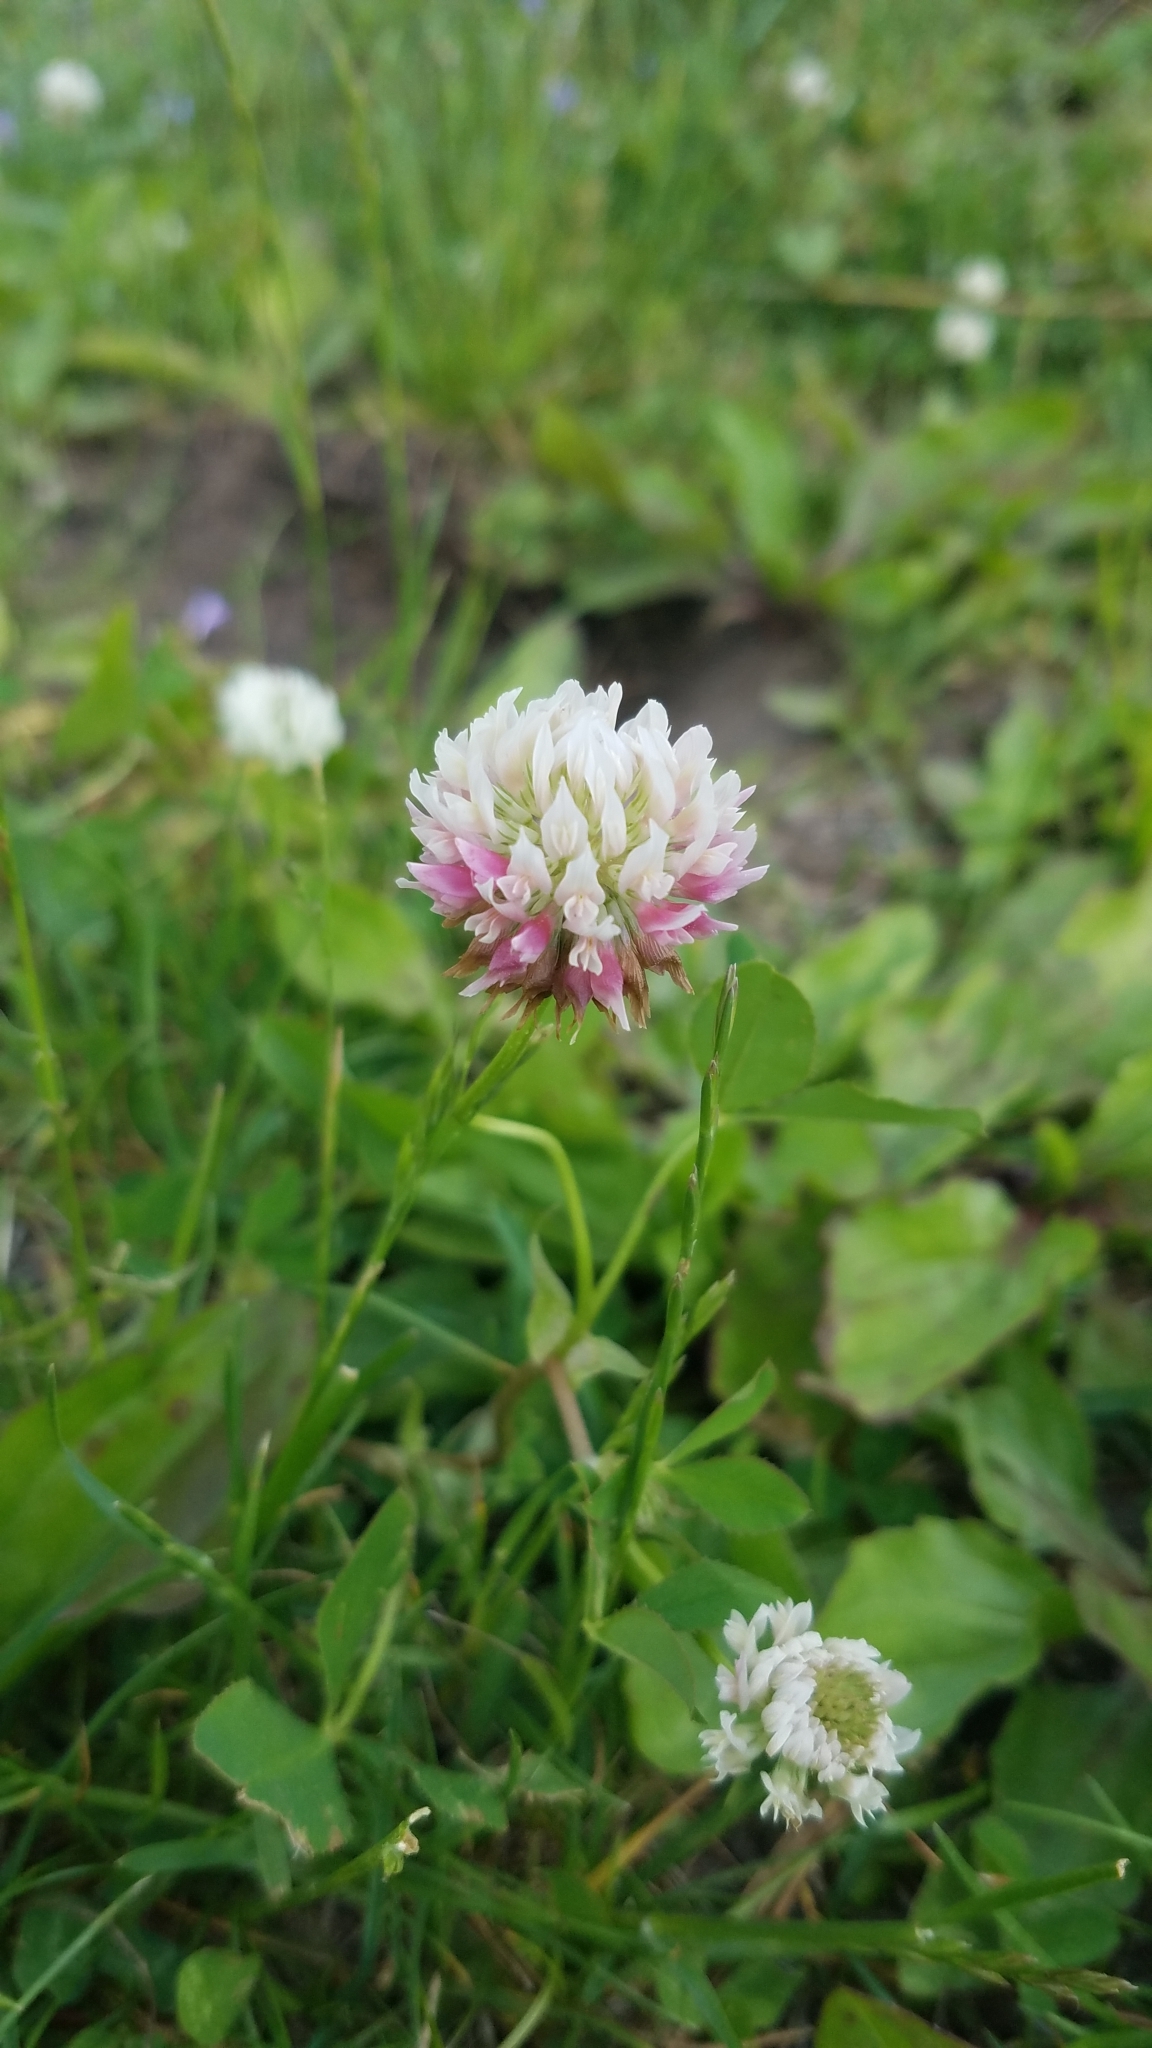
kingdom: Plantae
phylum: Tracheophyta
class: Magnoliopsida
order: Fabales
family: Fabaceae
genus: Trifolium
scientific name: Trifolium hybridum
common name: Alsike clover
